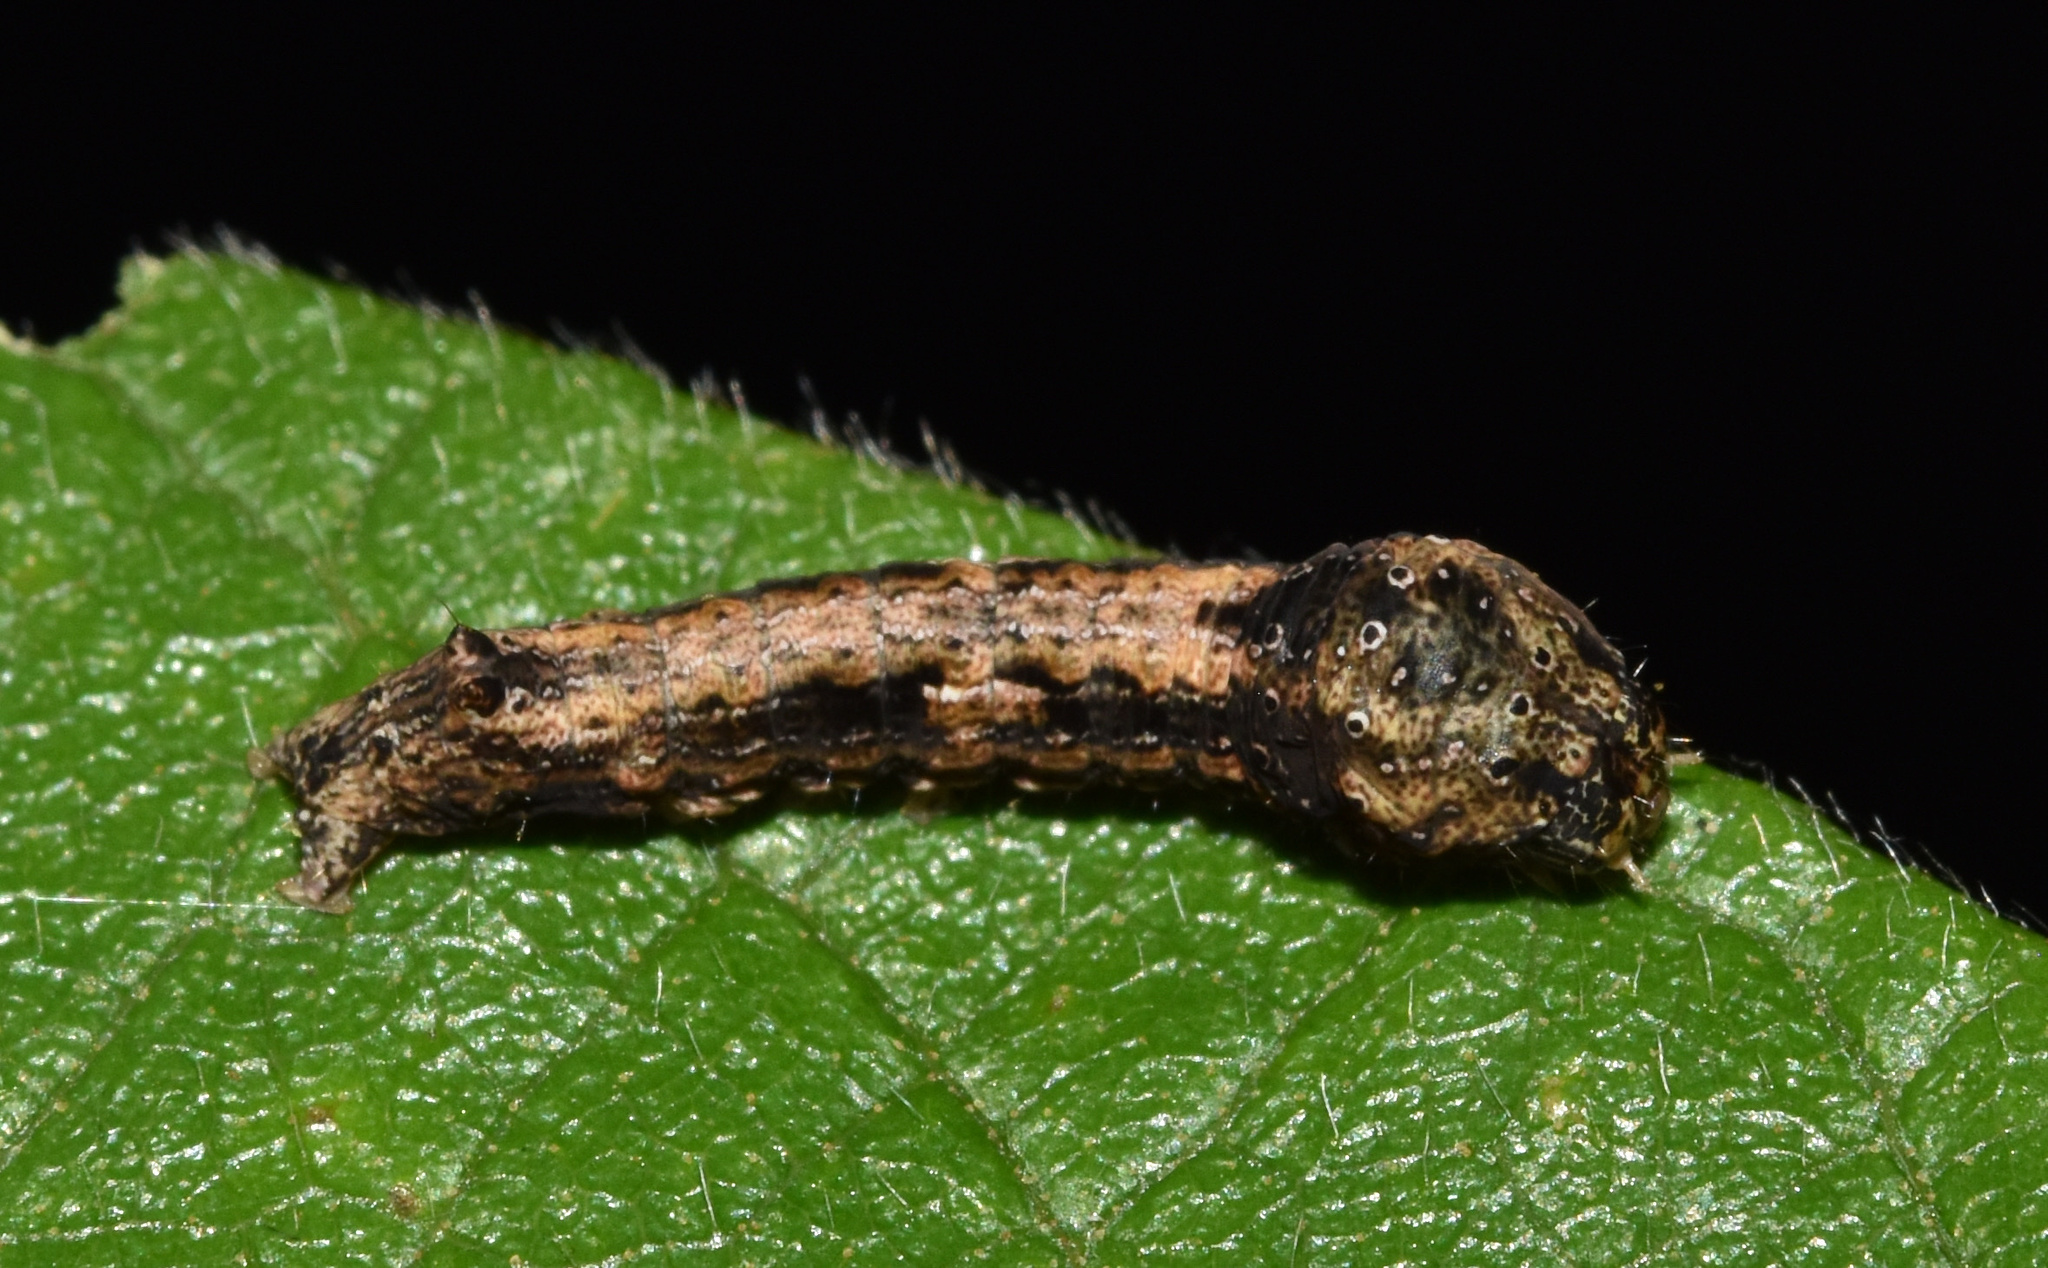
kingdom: Animalia
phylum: Arthropoda
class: Insecta
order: Lepidoptera
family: Nolidae
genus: Maurilia
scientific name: Maurilia arcuata
